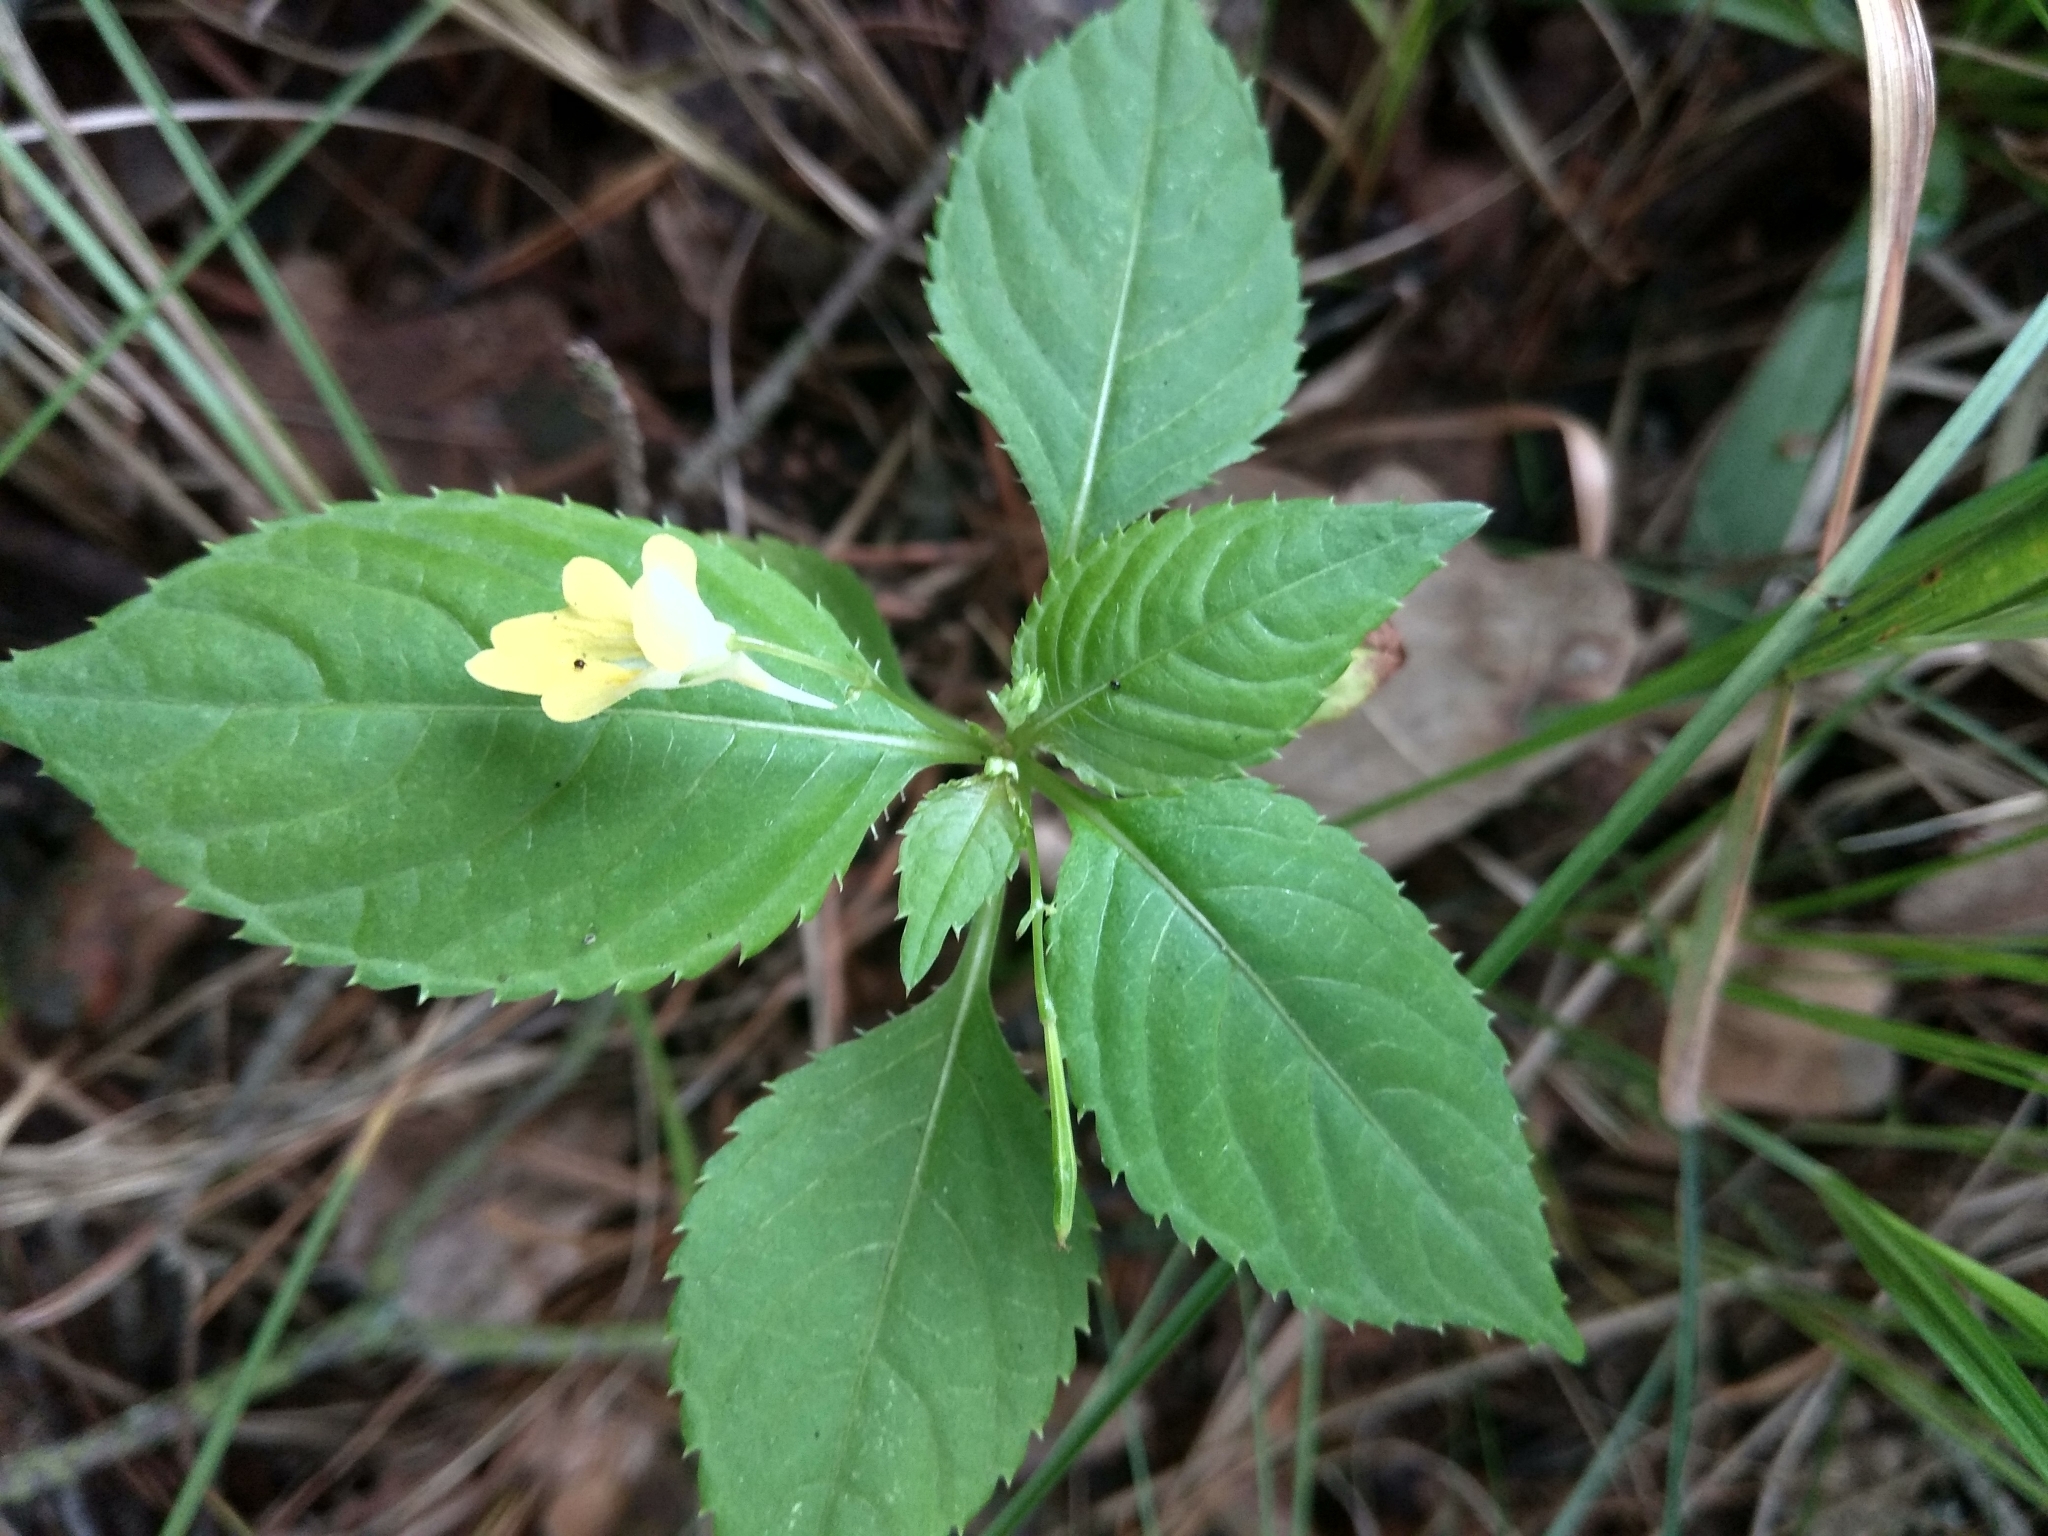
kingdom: Plantae
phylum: Tracheophyta
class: Magnoliopsida
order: Ericales
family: Balsaminaceae
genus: Impatiens
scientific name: Impatiens parviflora
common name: Small balsam
